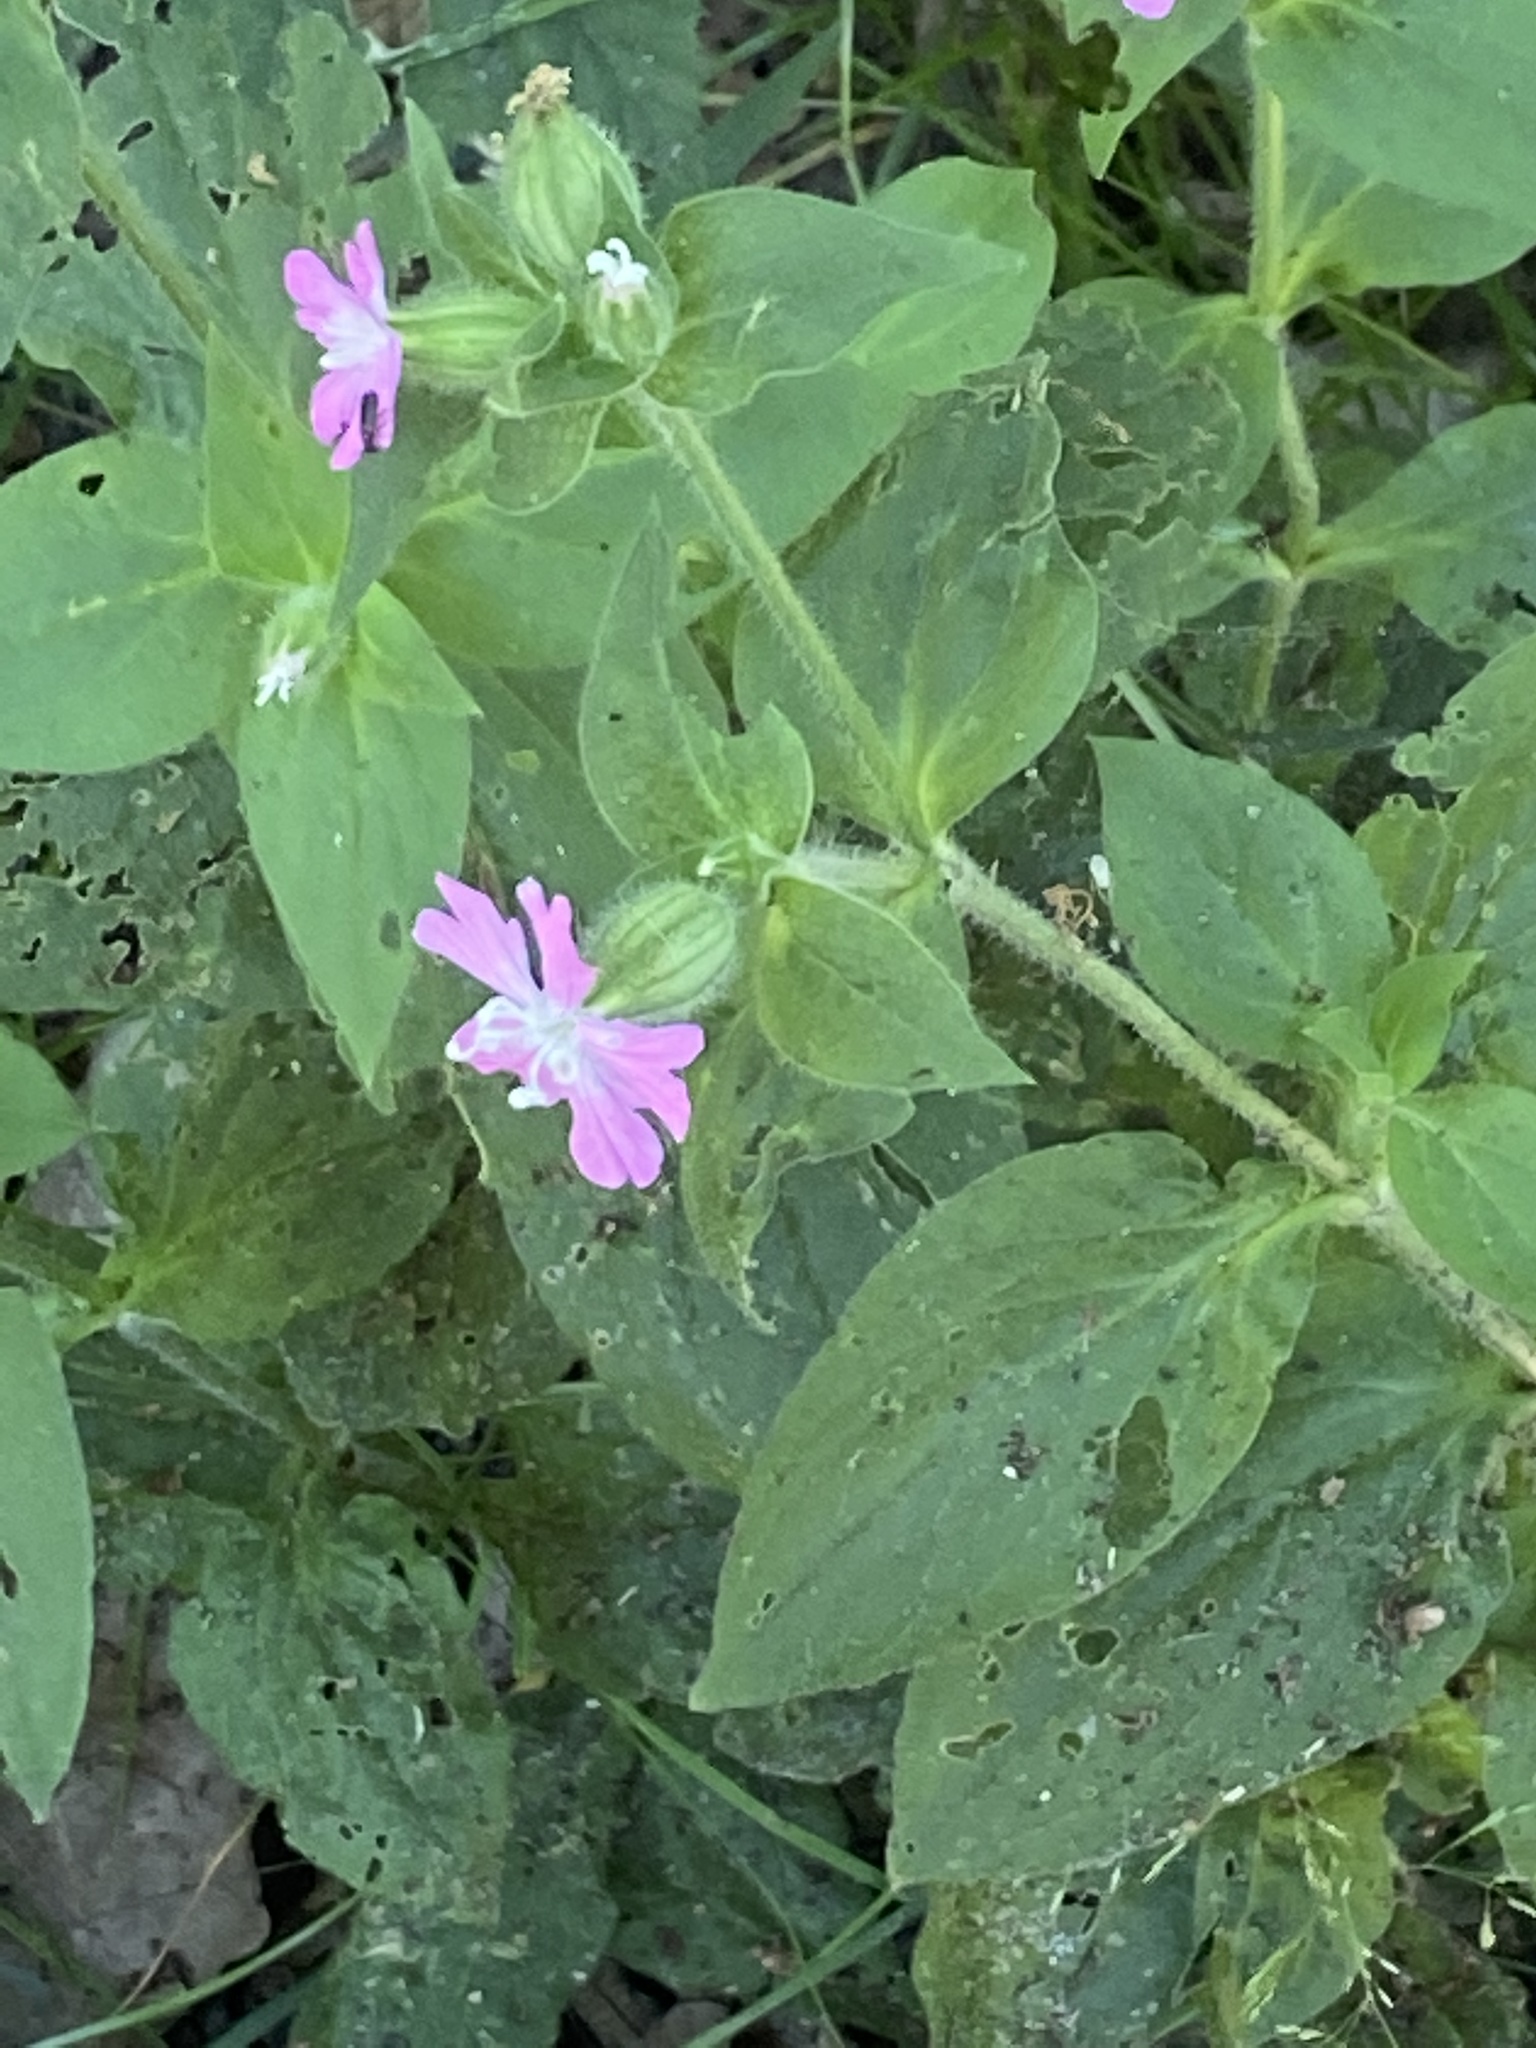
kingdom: Plantae
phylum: Tracheophyta
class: Magnoliopsida
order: Caryophyllales
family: Caryophyllaceae
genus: Silene
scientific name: Silene dioica
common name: Red campion
